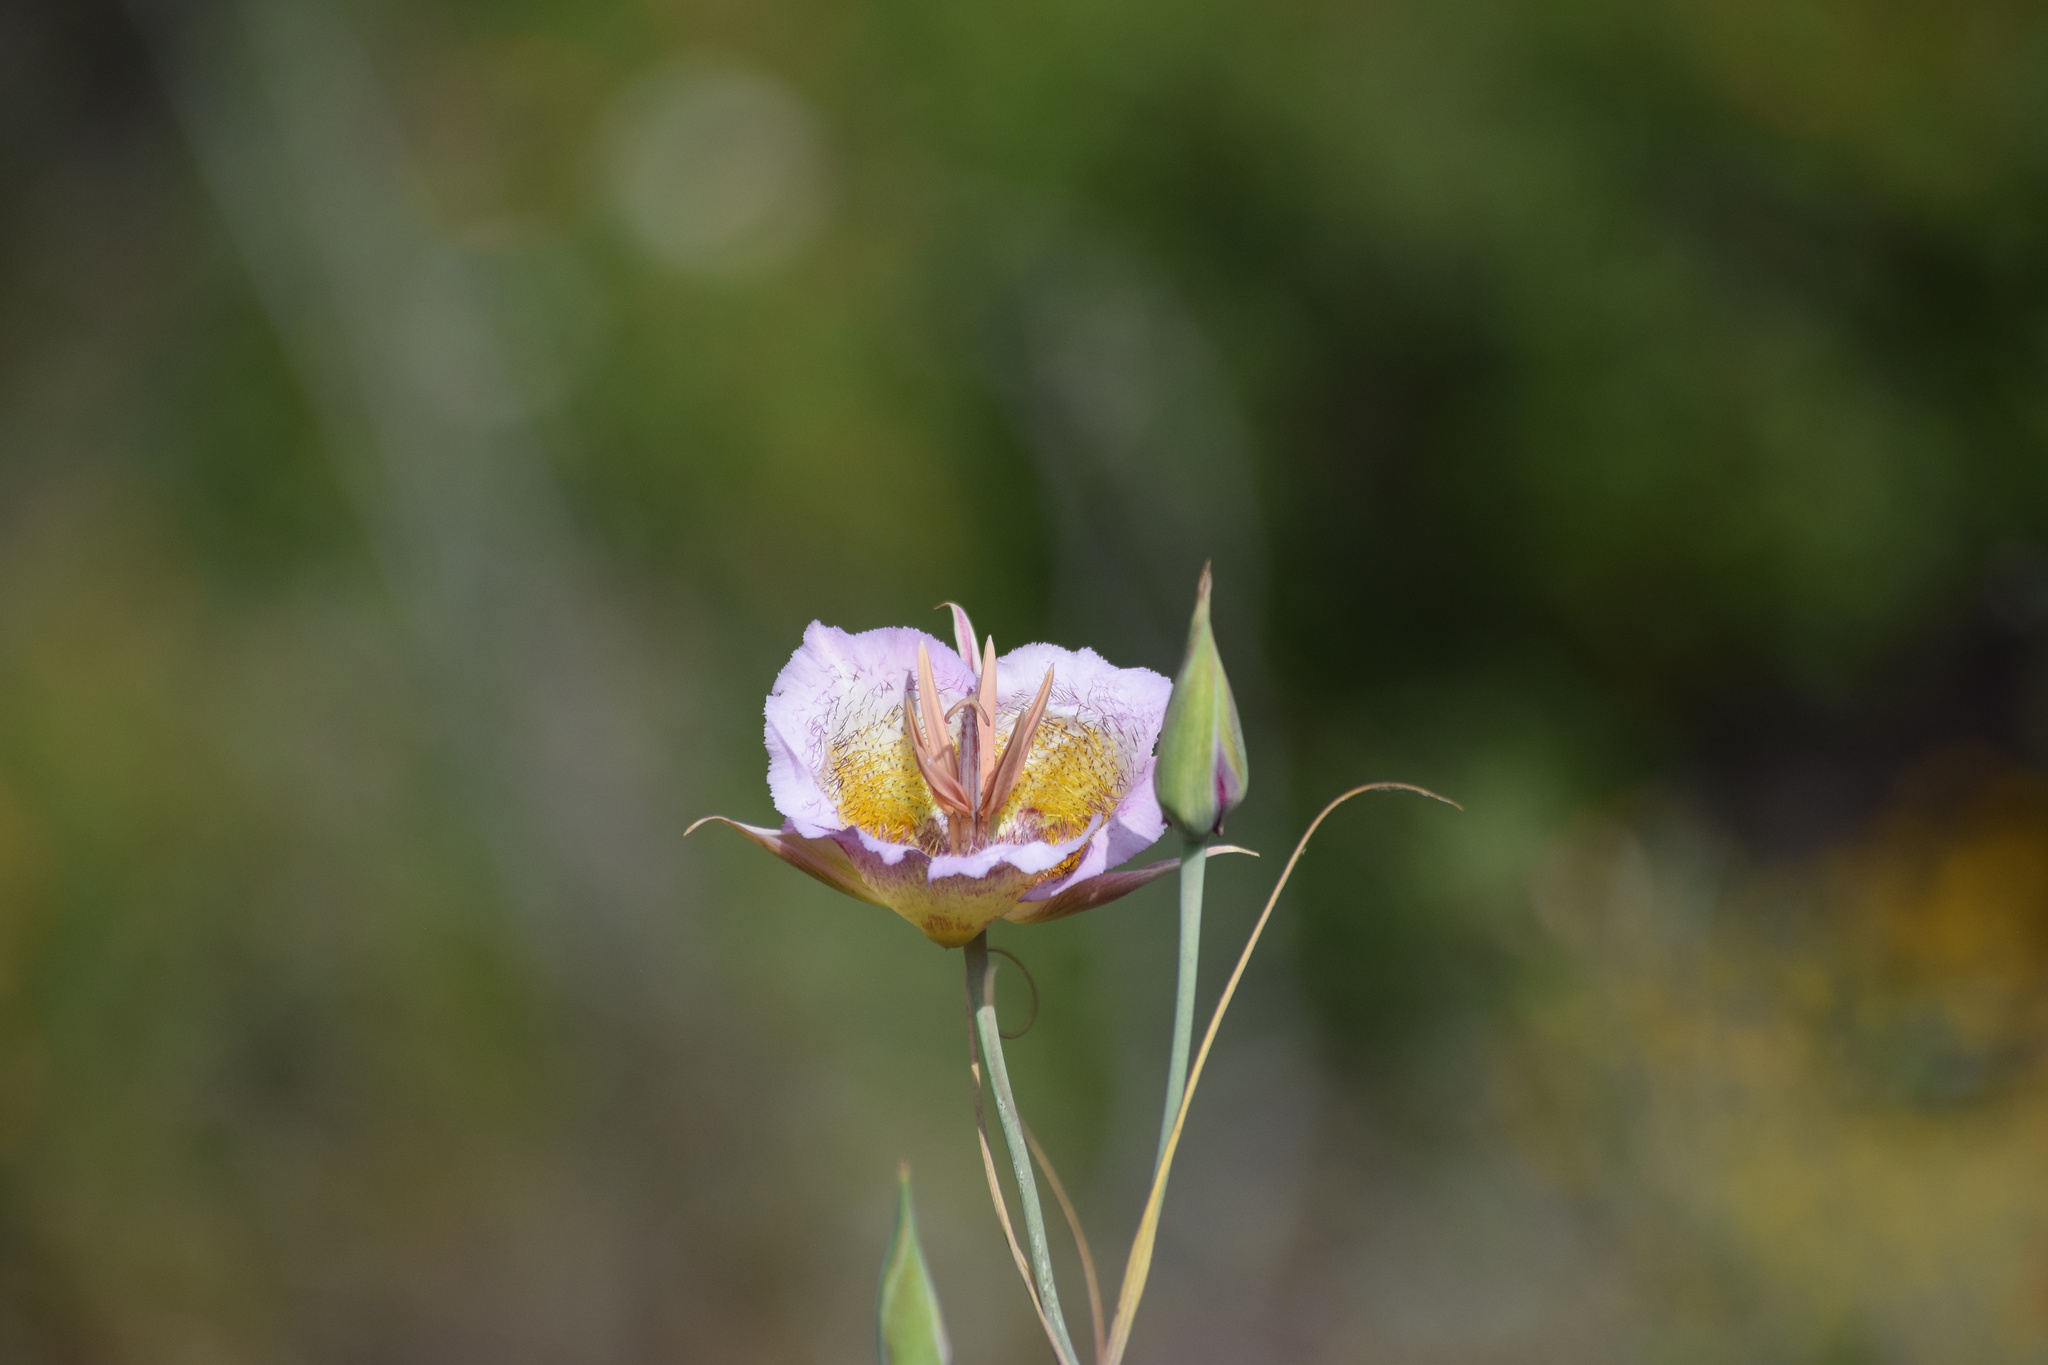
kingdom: Plantae
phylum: Tracheophyta
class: Liliopsida
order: Liliales
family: Liliaceae
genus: Calochortus
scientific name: Calochortus plummerae
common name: Plummer's mariposa-lily
